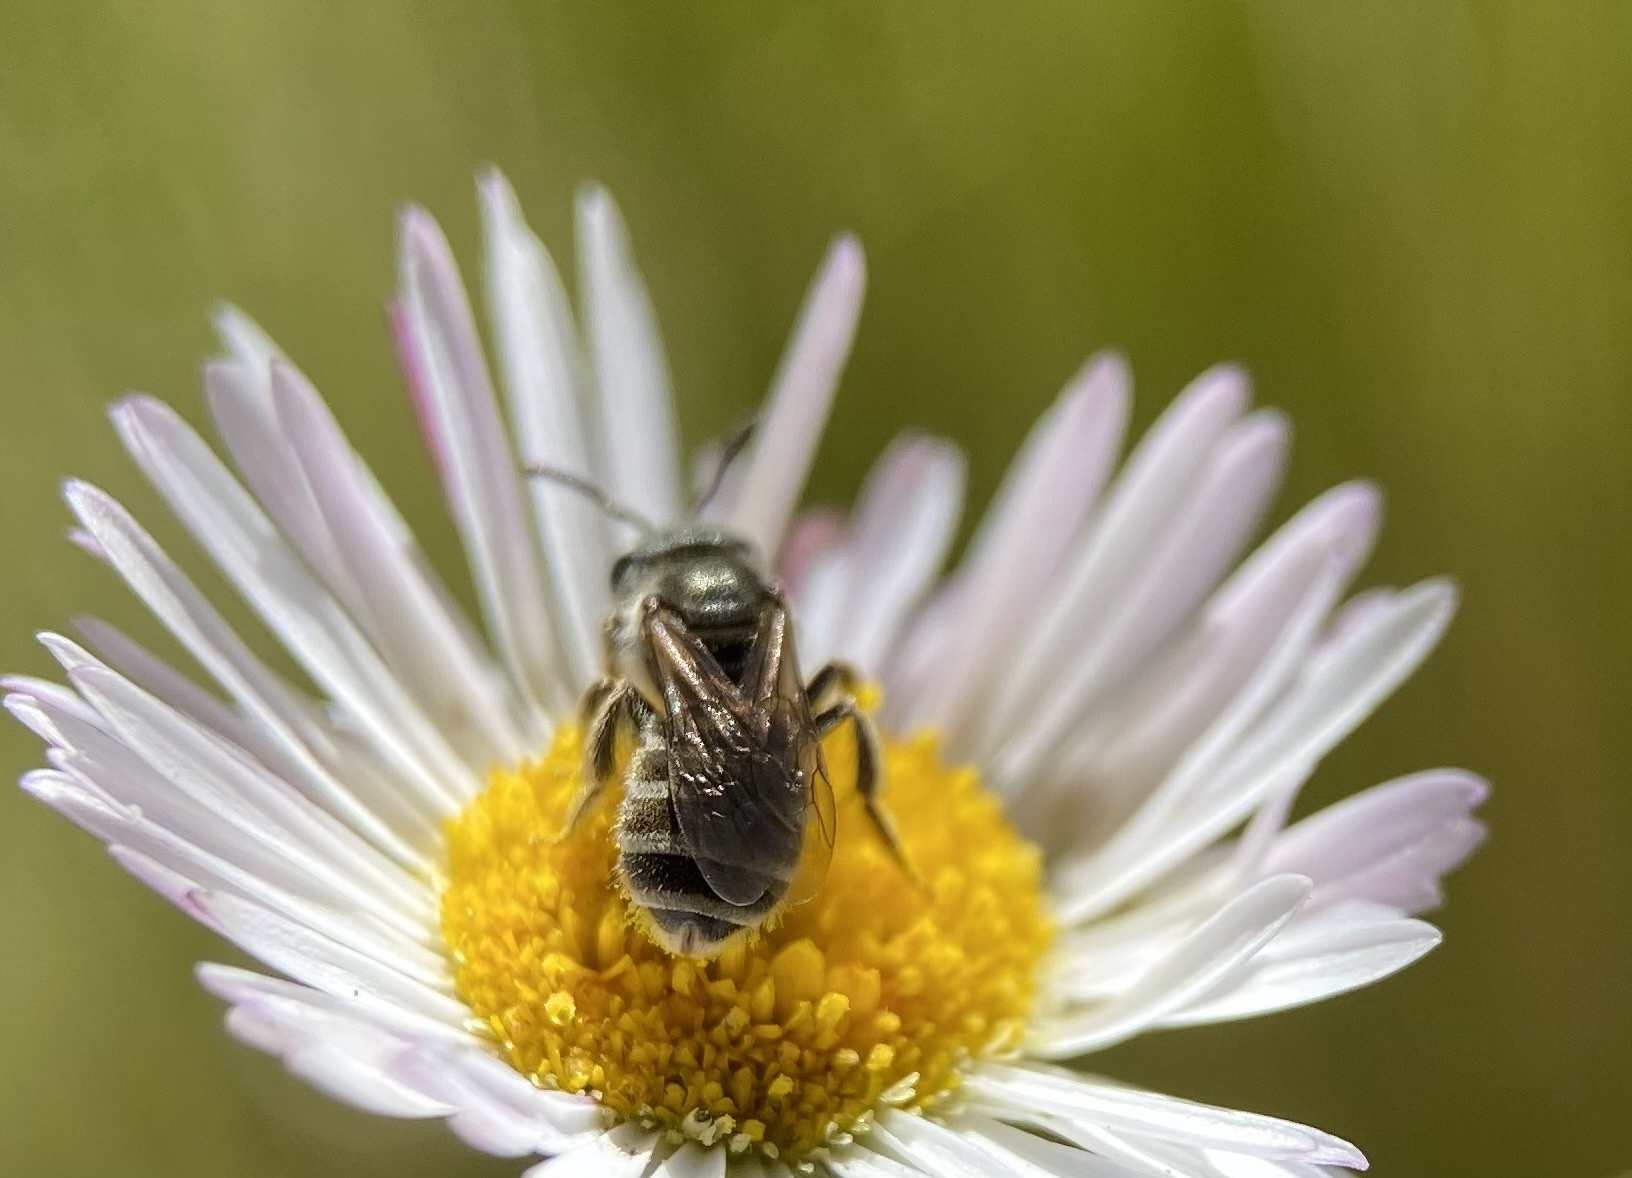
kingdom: Animalia
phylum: Arthropoda
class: Insecta
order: Hymenoptera
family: Halictidae
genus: Halictus
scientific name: Halictus tripartitus
